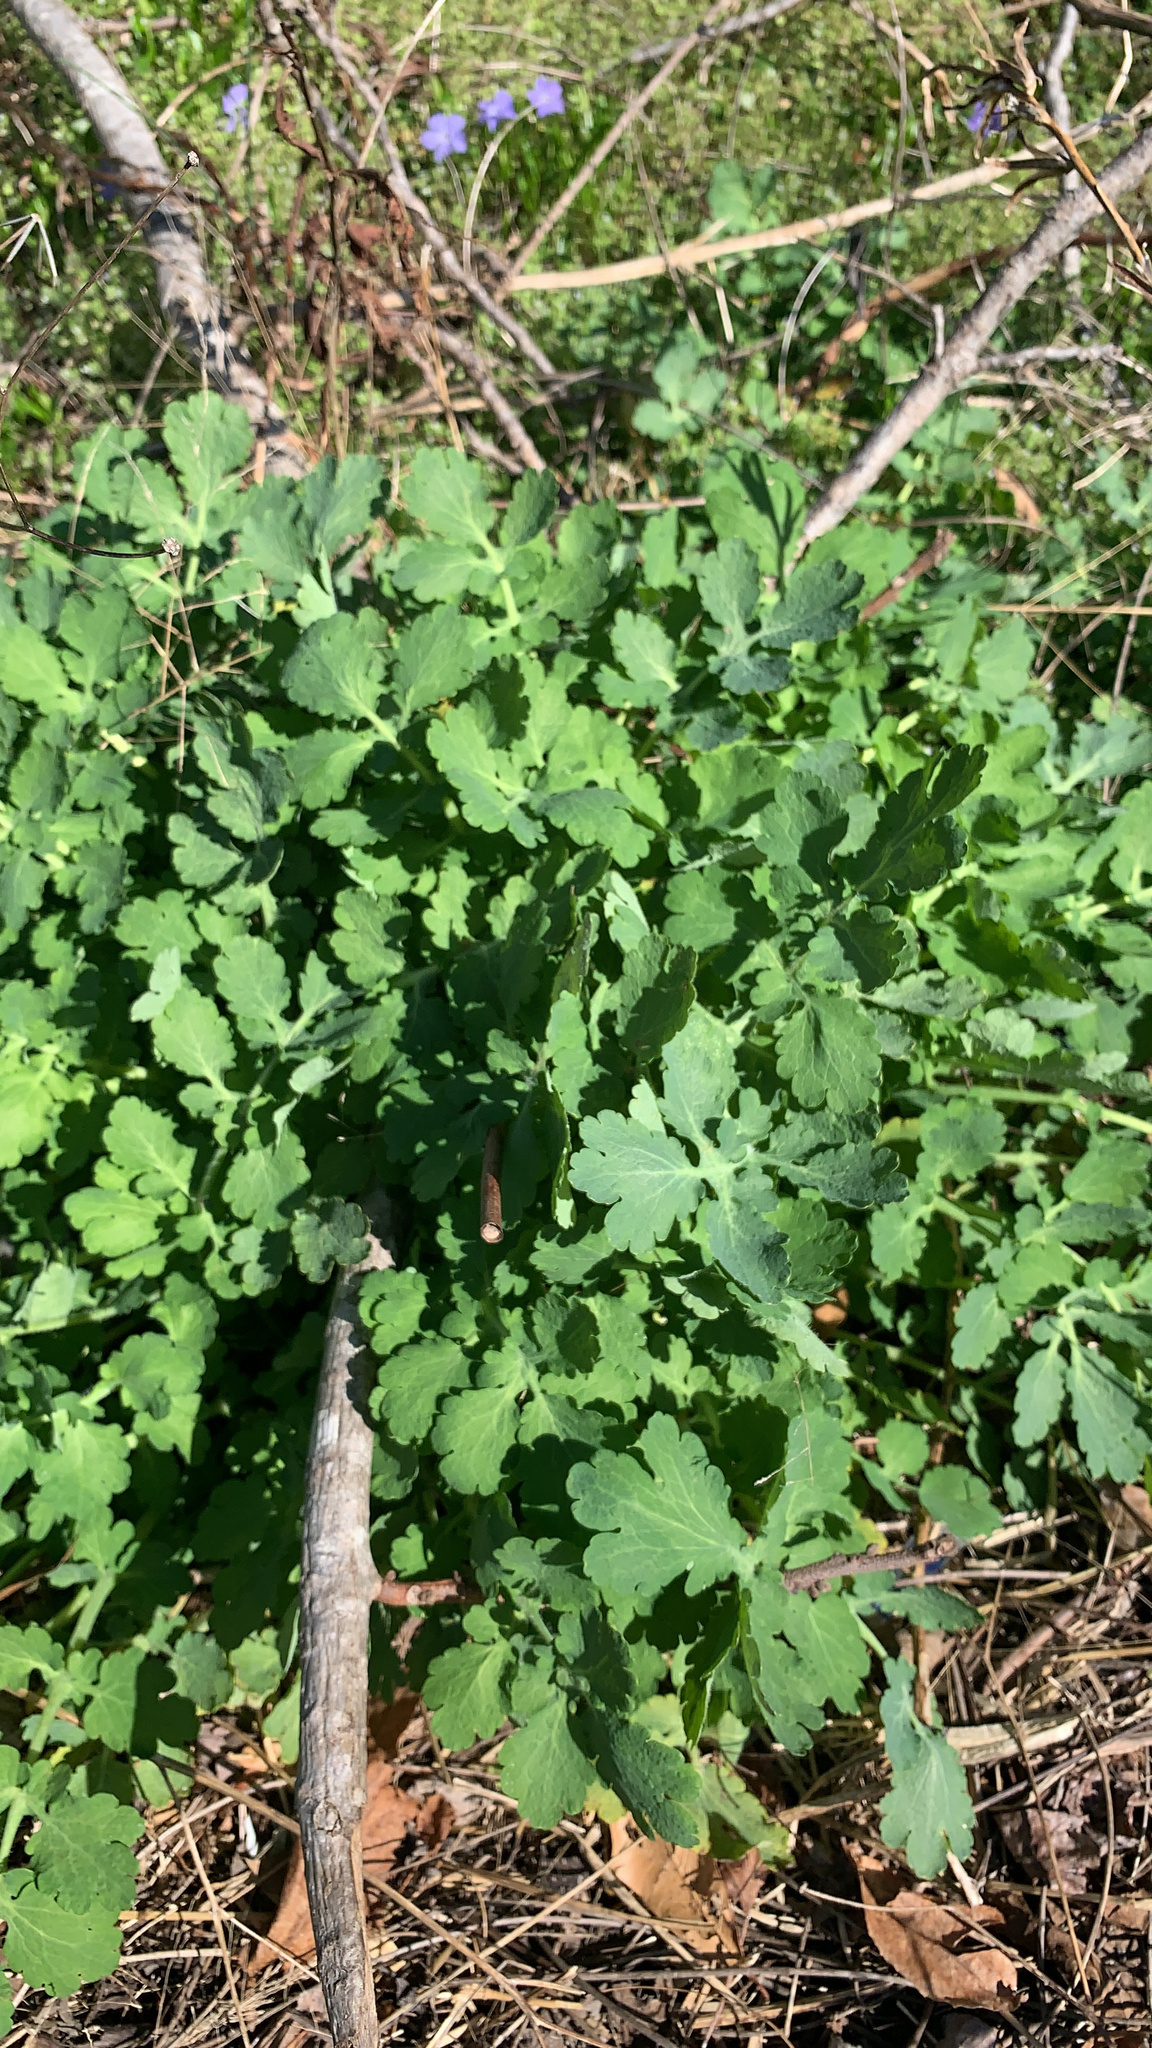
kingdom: Plantae
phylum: Tracheophyta
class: Magnoliopsida
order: Ranunculales
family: Papaveraceae
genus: Chelidonium
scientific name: Chelidonium majus
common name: Greater celandine
